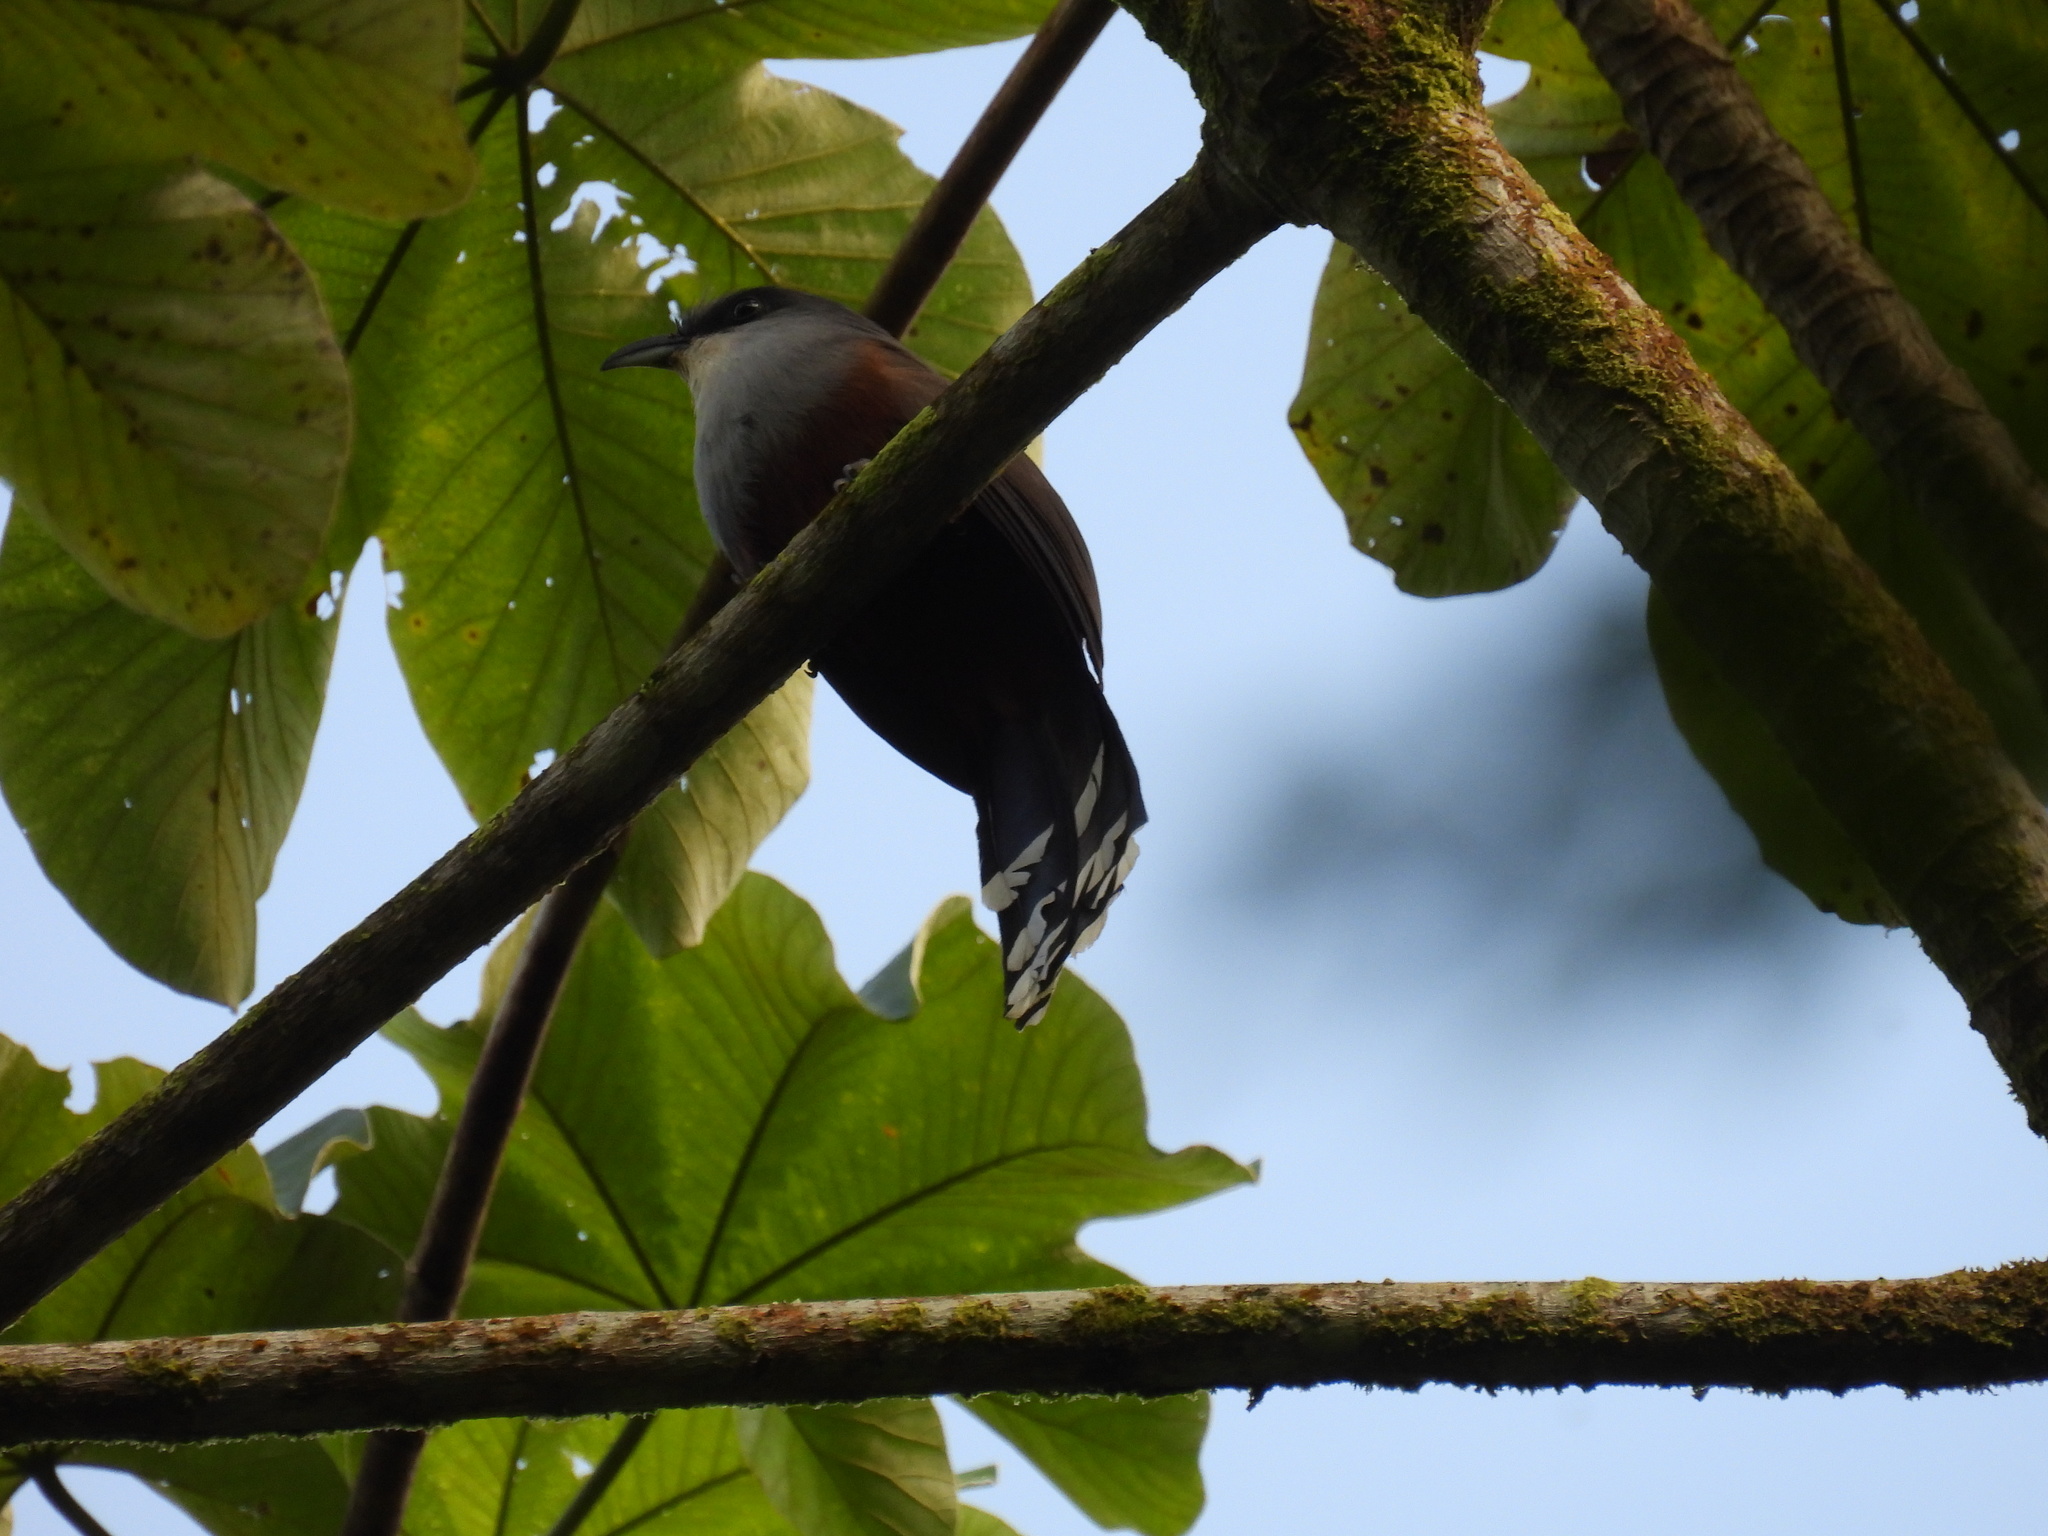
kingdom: Animalia
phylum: Chordata
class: Aves
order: Cuculiformes
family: Cuculidae
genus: Hyetornis
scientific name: Hyetornis pluvialis
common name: Chestnut-bellied cuckoo
